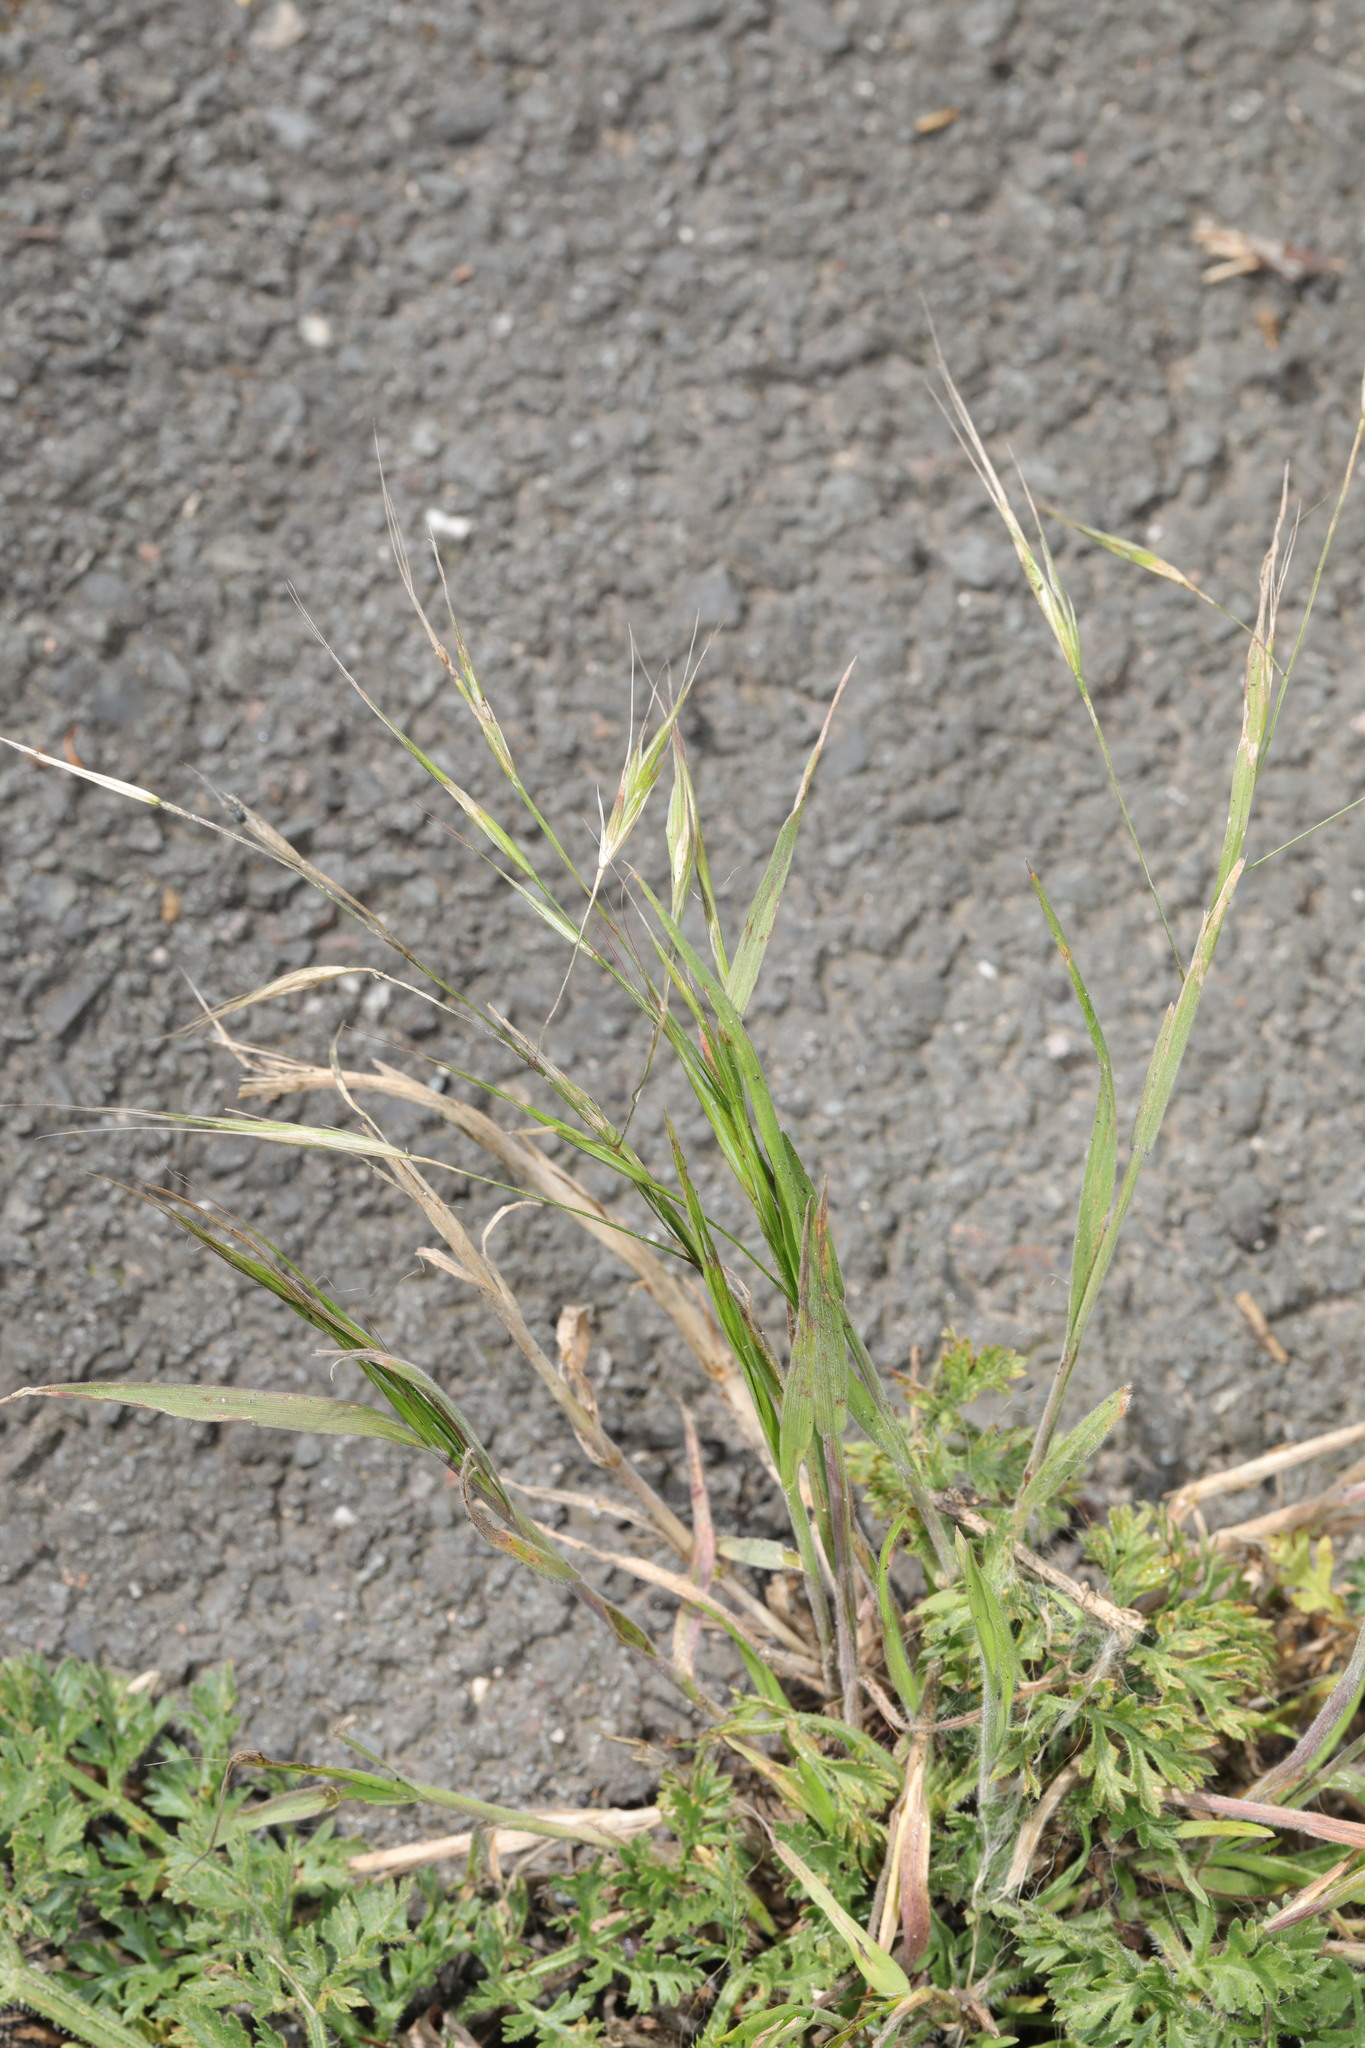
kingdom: Plantae
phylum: Tracheophyta
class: Liliopsida
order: Poales
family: Poaceae
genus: Bromus
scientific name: Bromus sterilis
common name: Poverty brome
